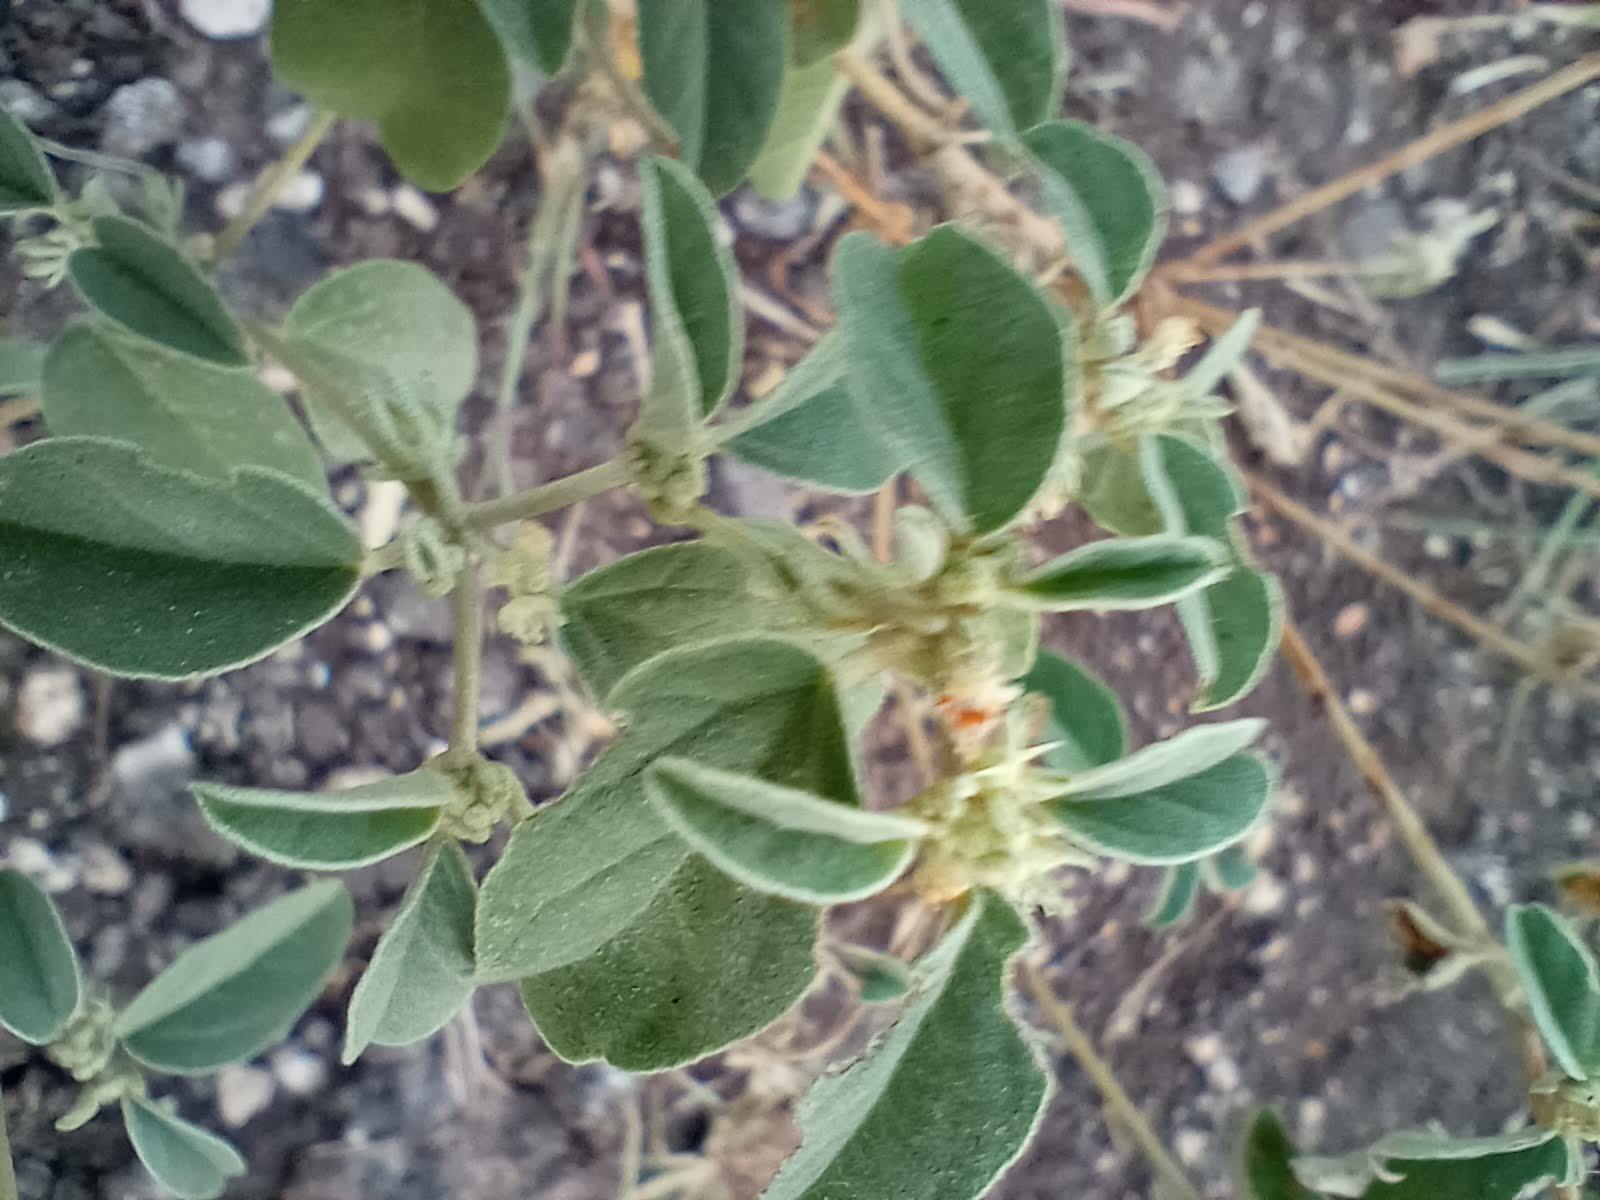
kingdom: Plantae
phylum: Tracheophyta
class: Magnoliopsida
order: Malpighiales
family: Euphorbiaceae
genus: Croton
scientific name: Croton monanthogynus
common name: One-seed croton
